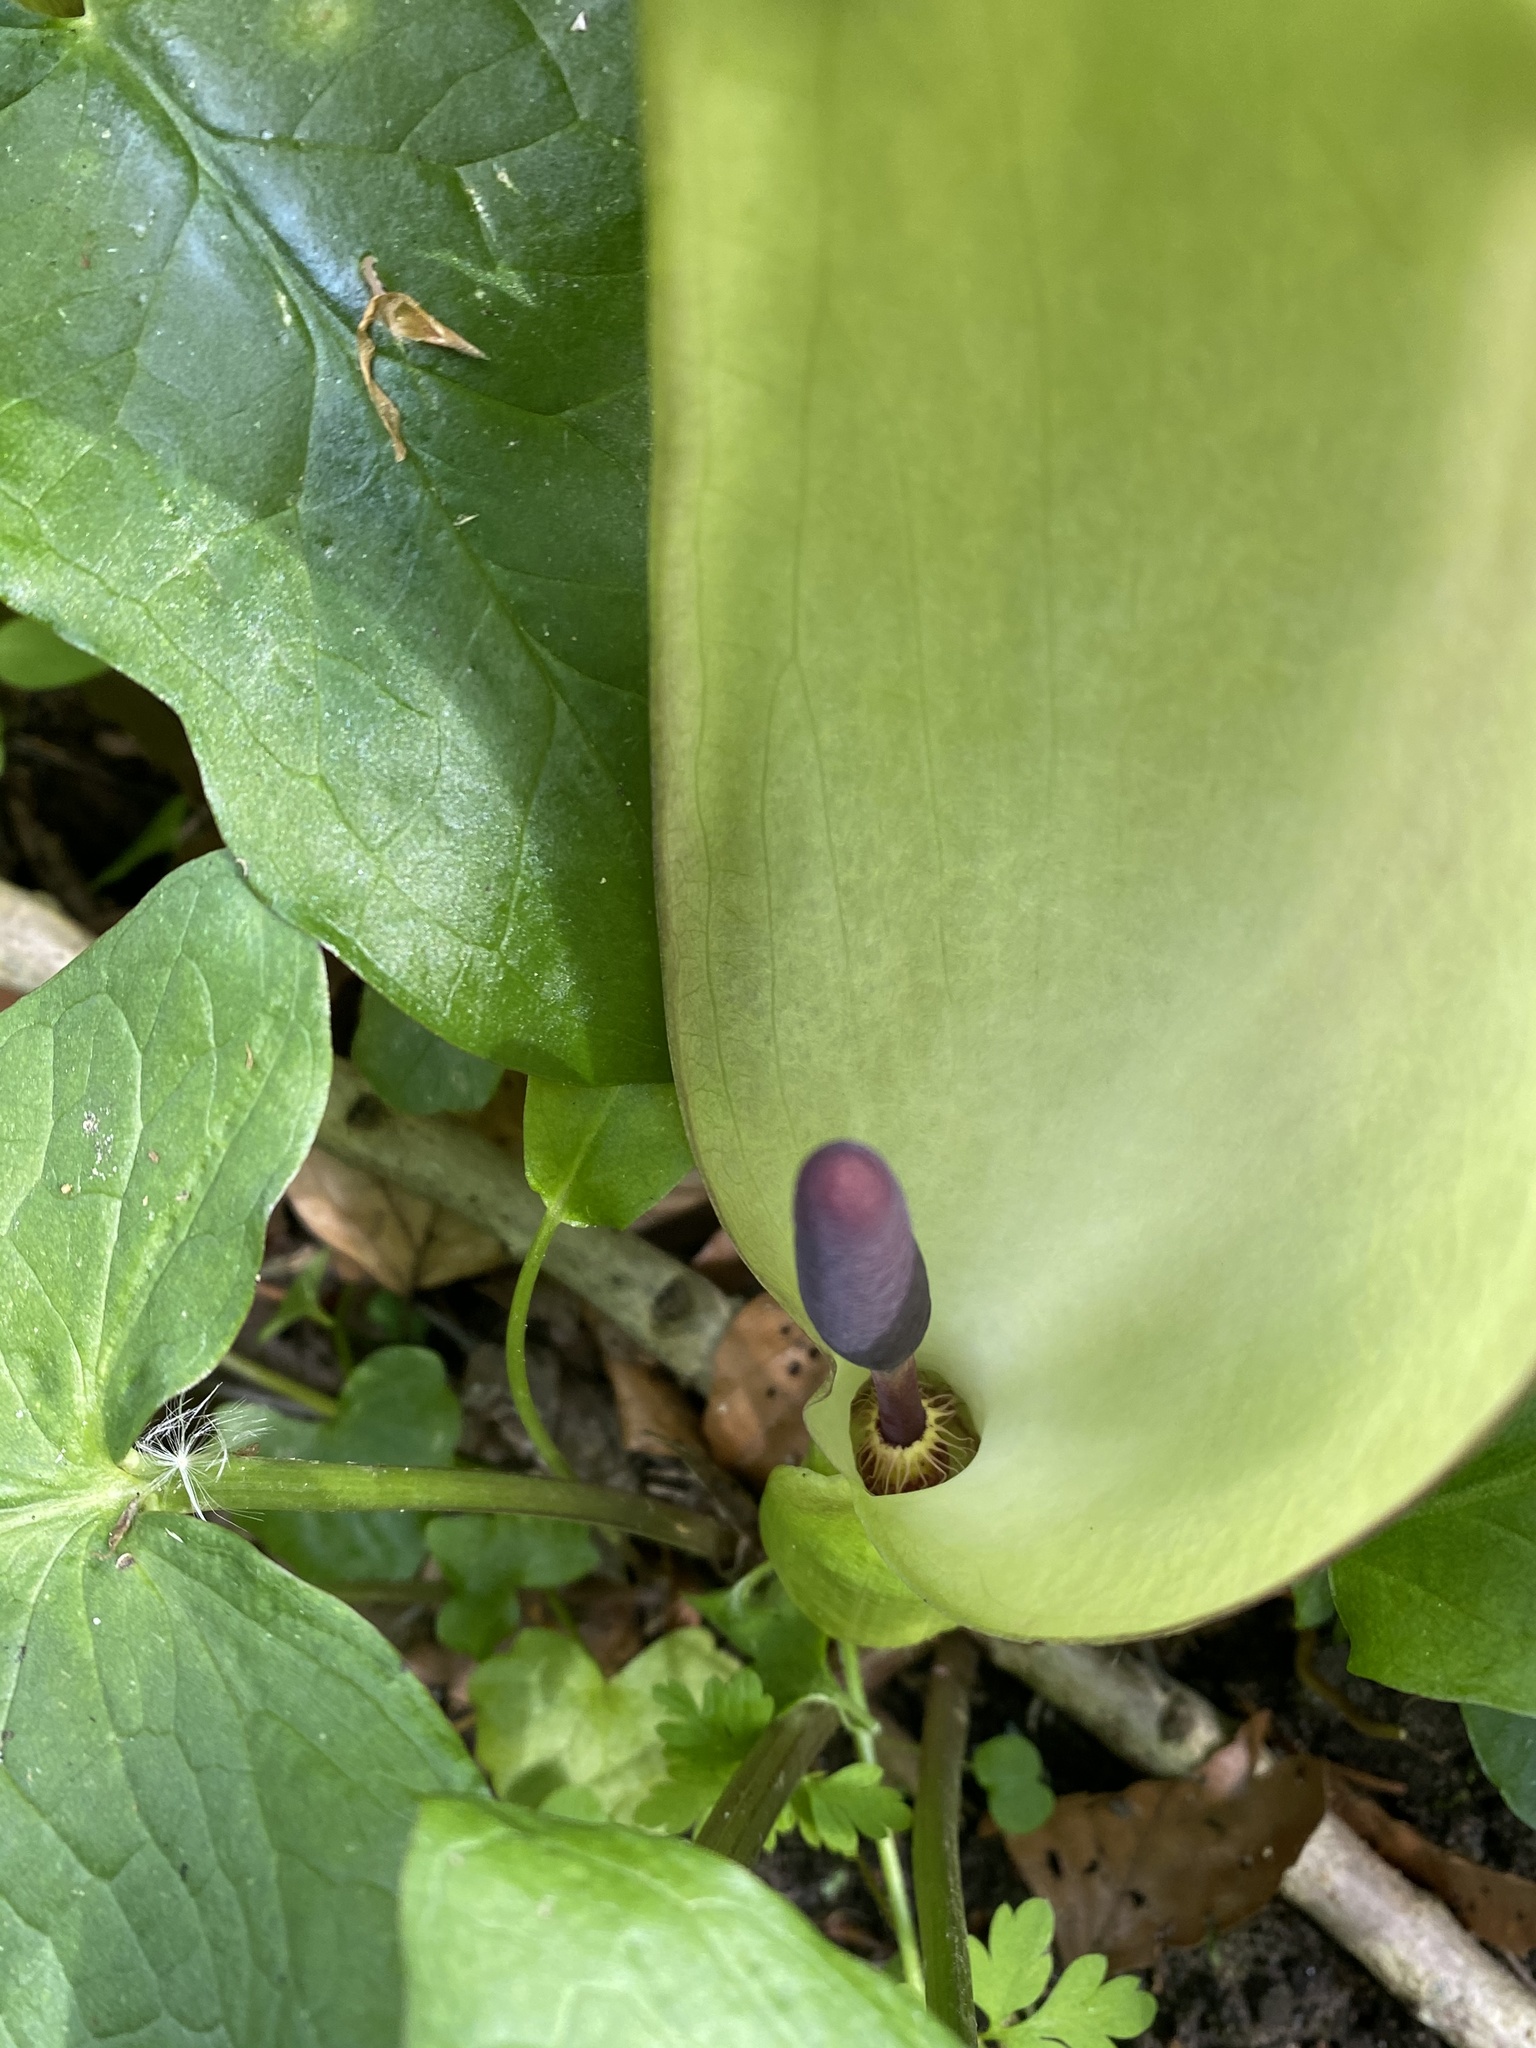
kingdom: Plantae
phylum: Tracheophyta
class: Liliopsida
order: Alismatales
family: Araceae
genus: Arum
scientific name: Arum maculatum
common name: Lords-and-ladies
